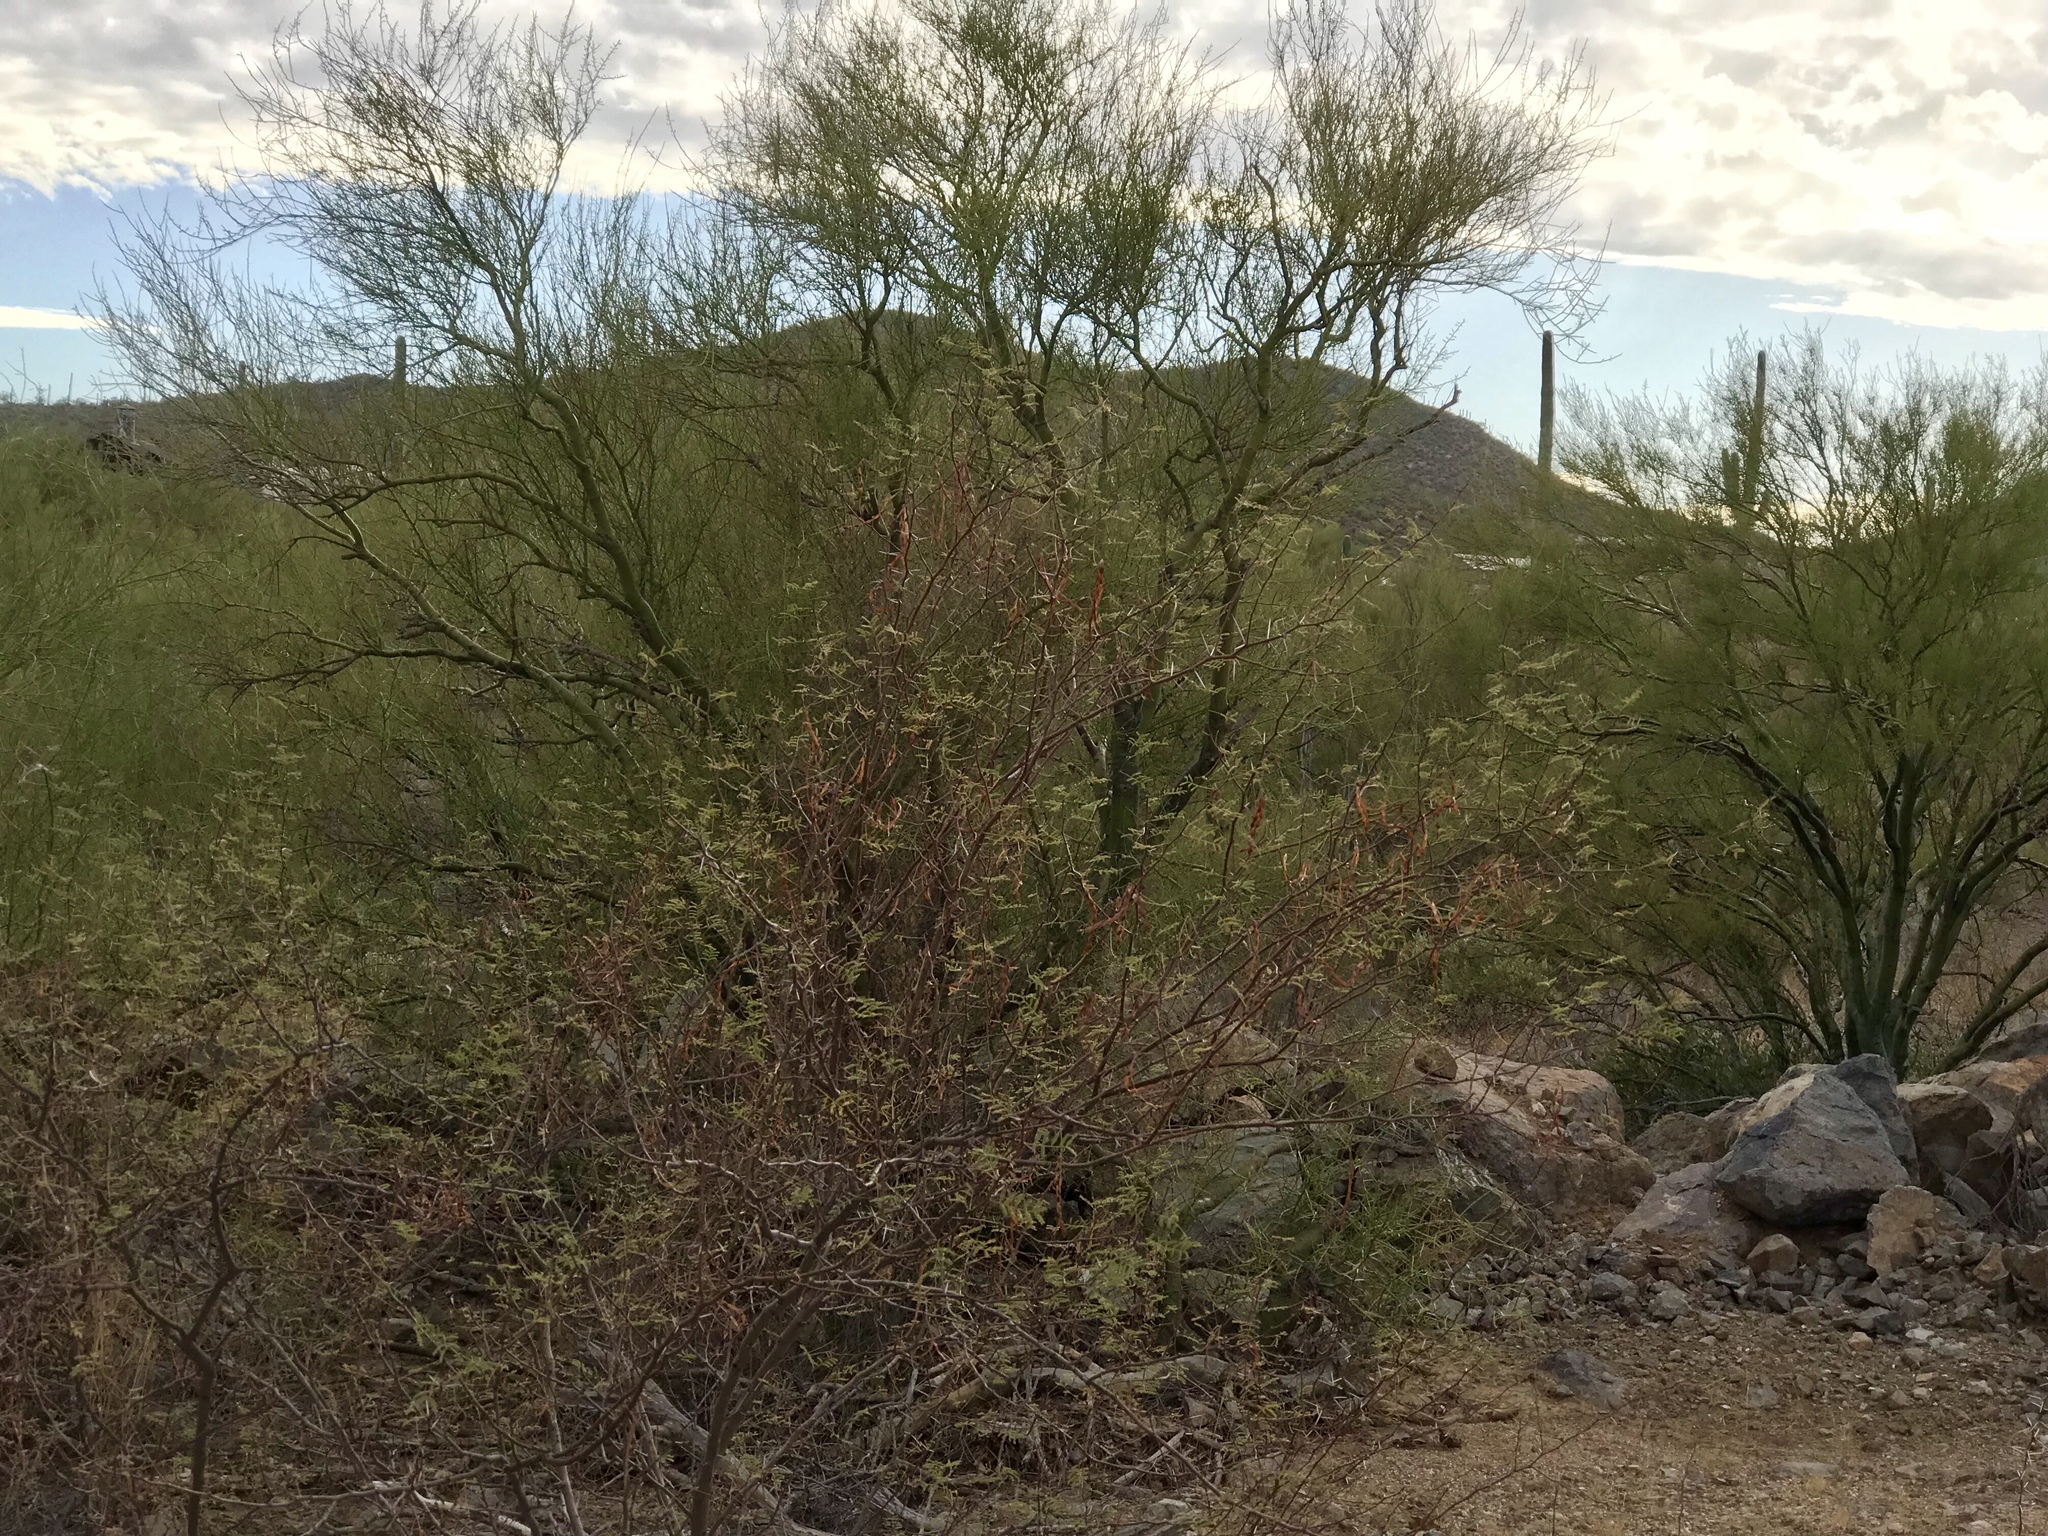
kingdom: Plantae
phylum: Tracheophyta
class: Magnoliopsida
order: Fabales
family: Fabaceae
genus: Vachellia
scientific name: Vachellia constricta
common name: Mescat acacia
